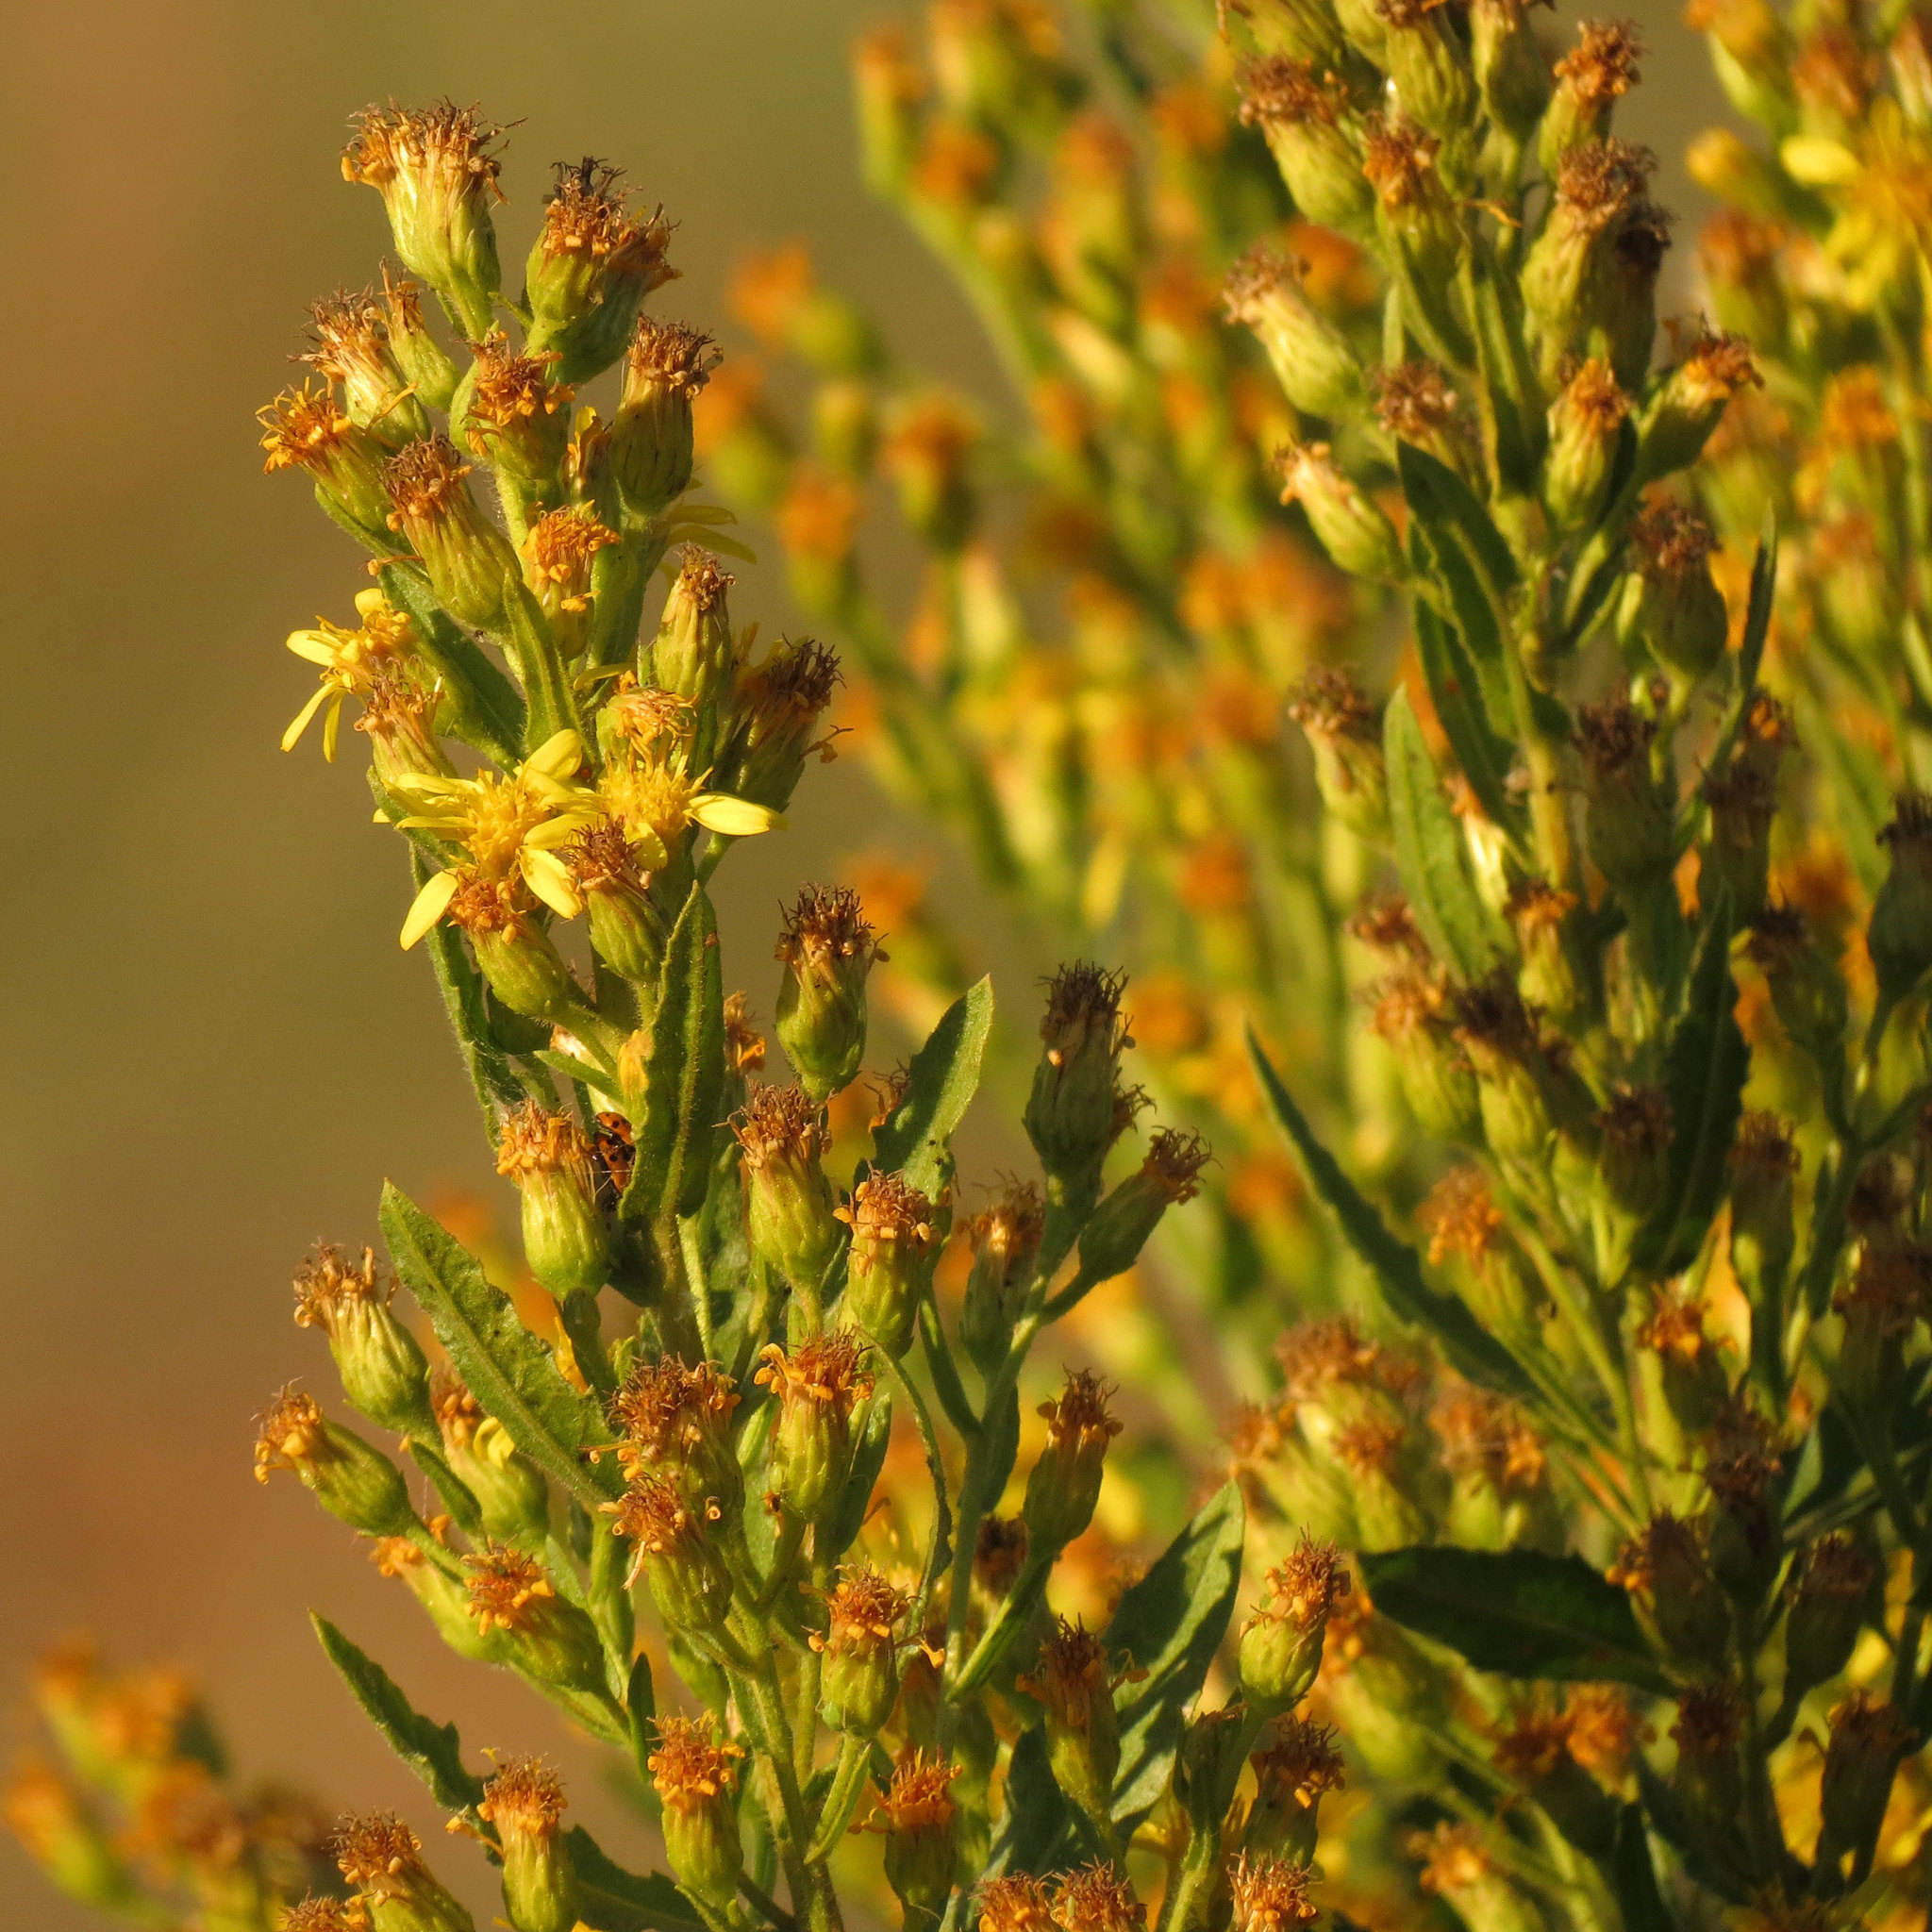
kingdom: Plantae
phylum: Tracheophyta
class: Magnoliopsida
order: Asterales
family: Asteraceae
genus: Dittrichia
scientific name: Dittrichia viscosa
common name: Woody fleabane
